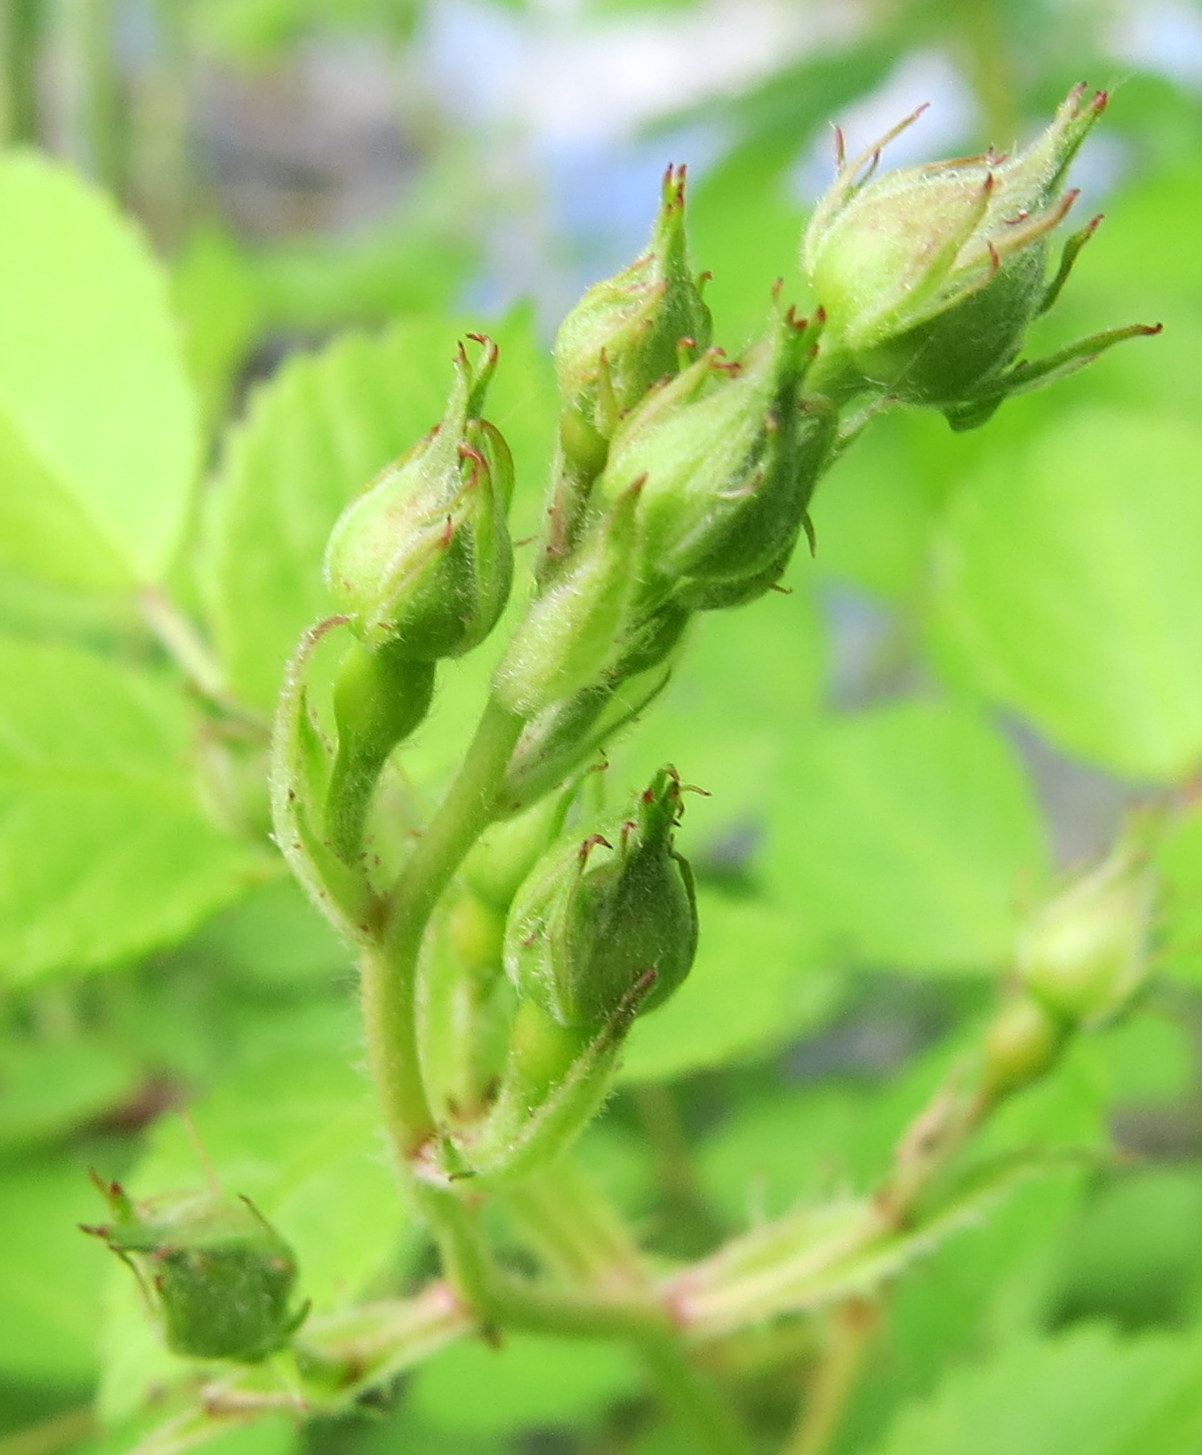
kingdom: Plantae
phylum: Tracheophyta
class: Magnoliopsida
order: Rosales
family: Rosaceae
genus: Rosa
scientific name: Rosa multiflora
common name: Multiflora rose
